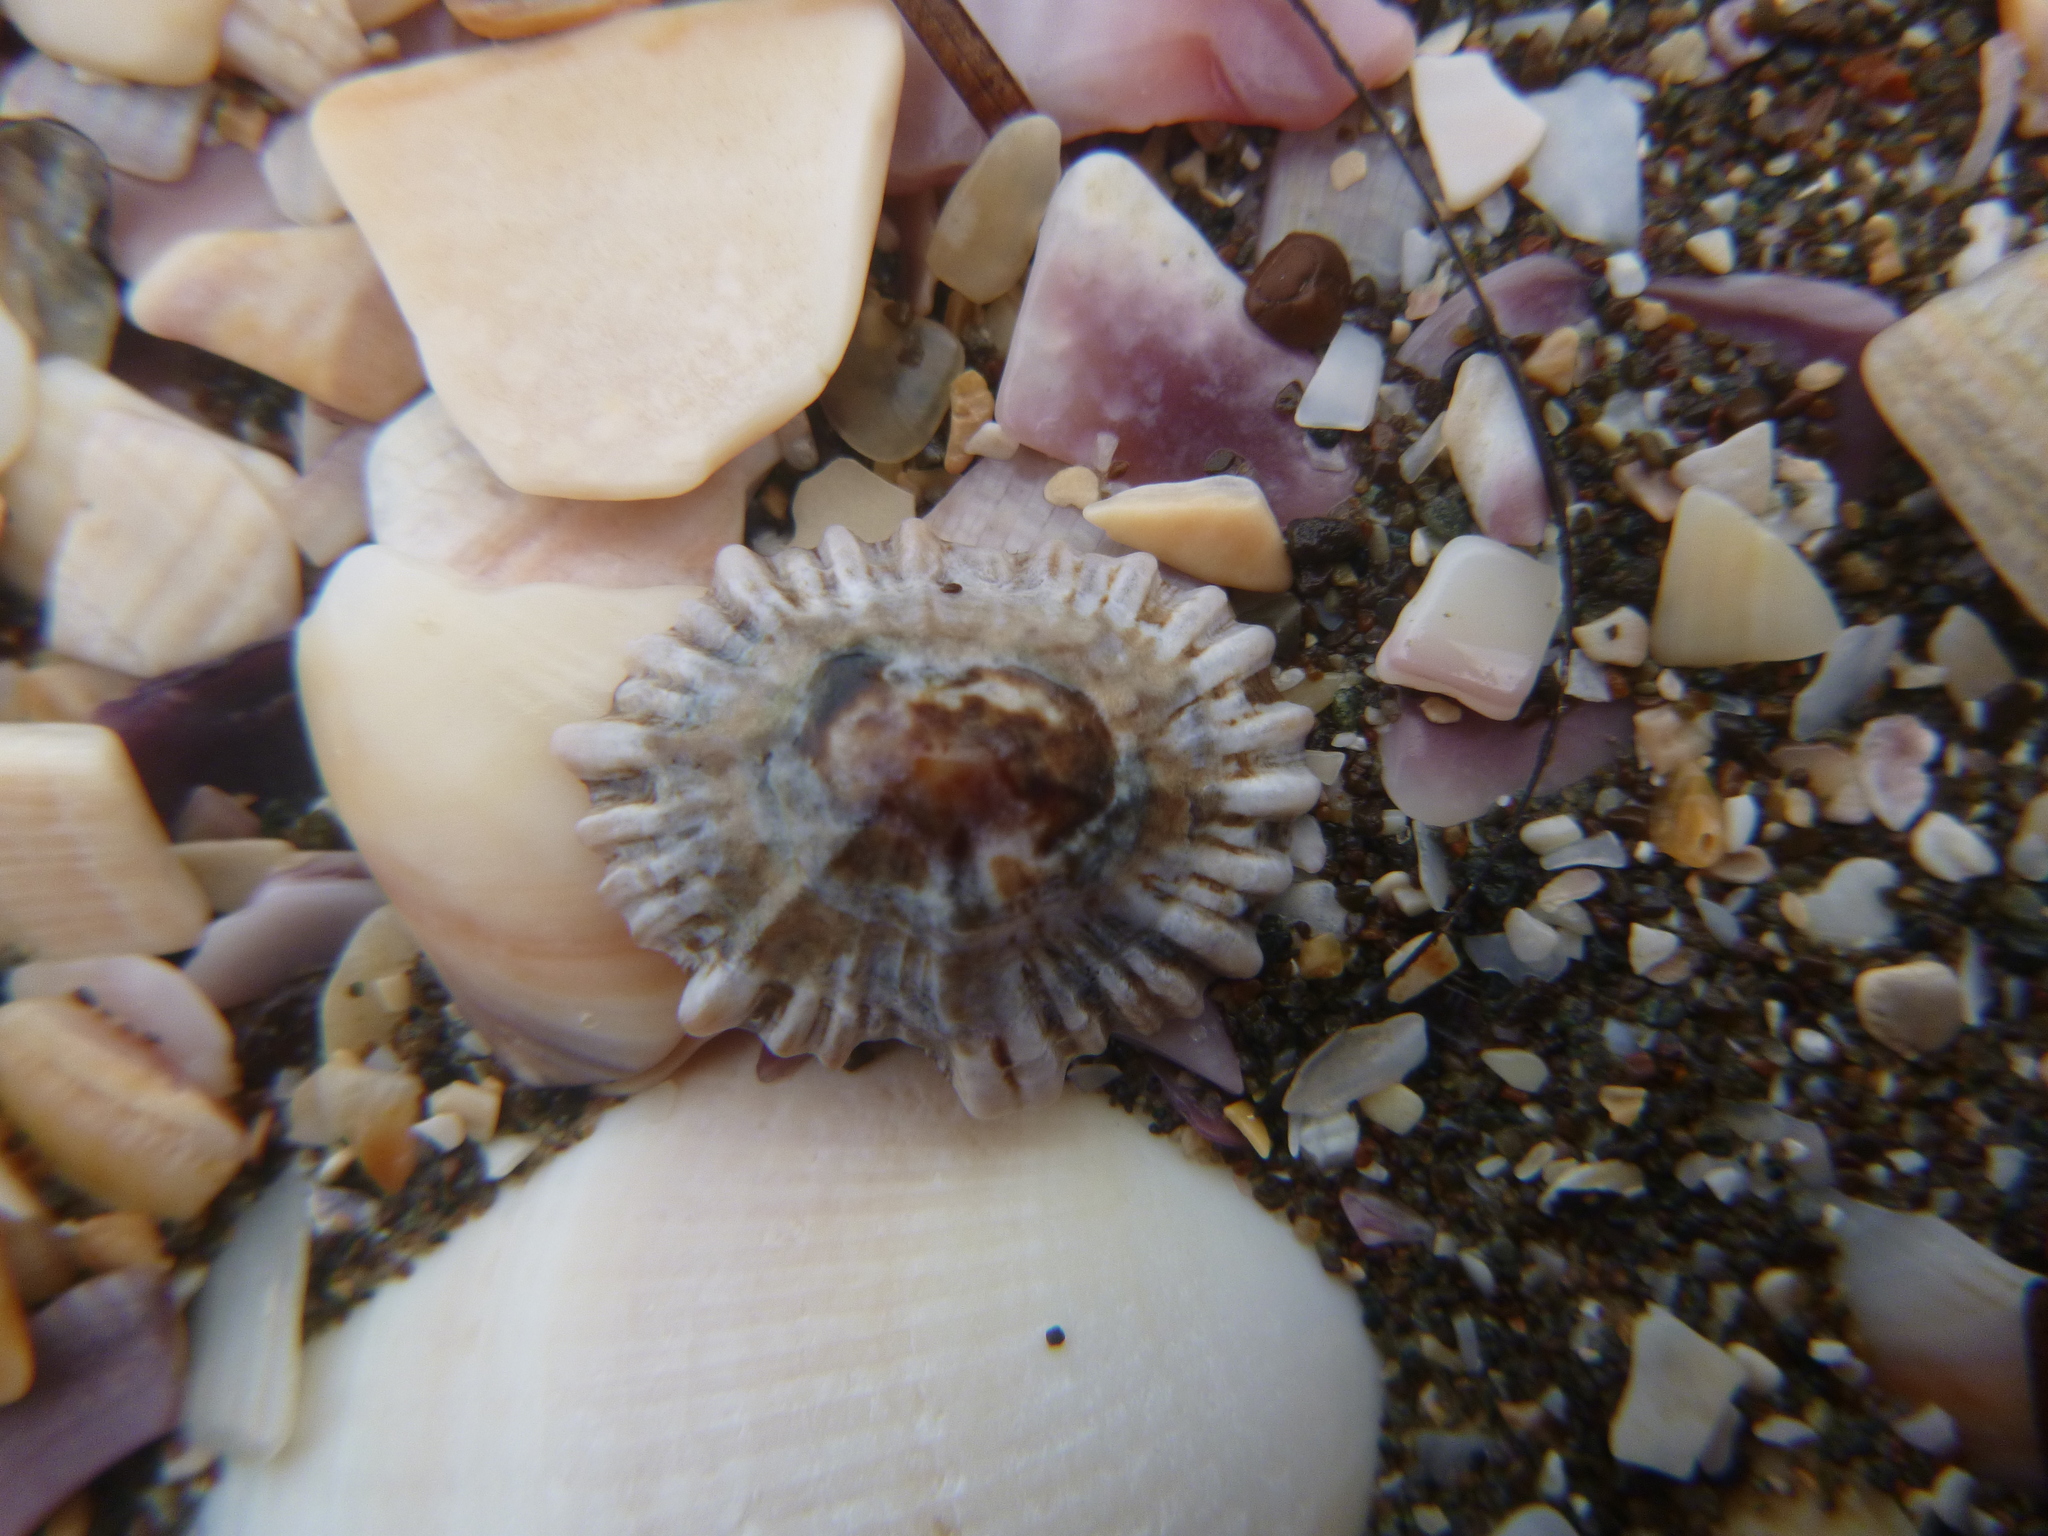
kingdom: Animalia
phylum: Mollusca
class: Gastropoda
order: Siphonariida
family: Siphonariidae
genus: Siphonaria
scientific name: Siphonaria australis
